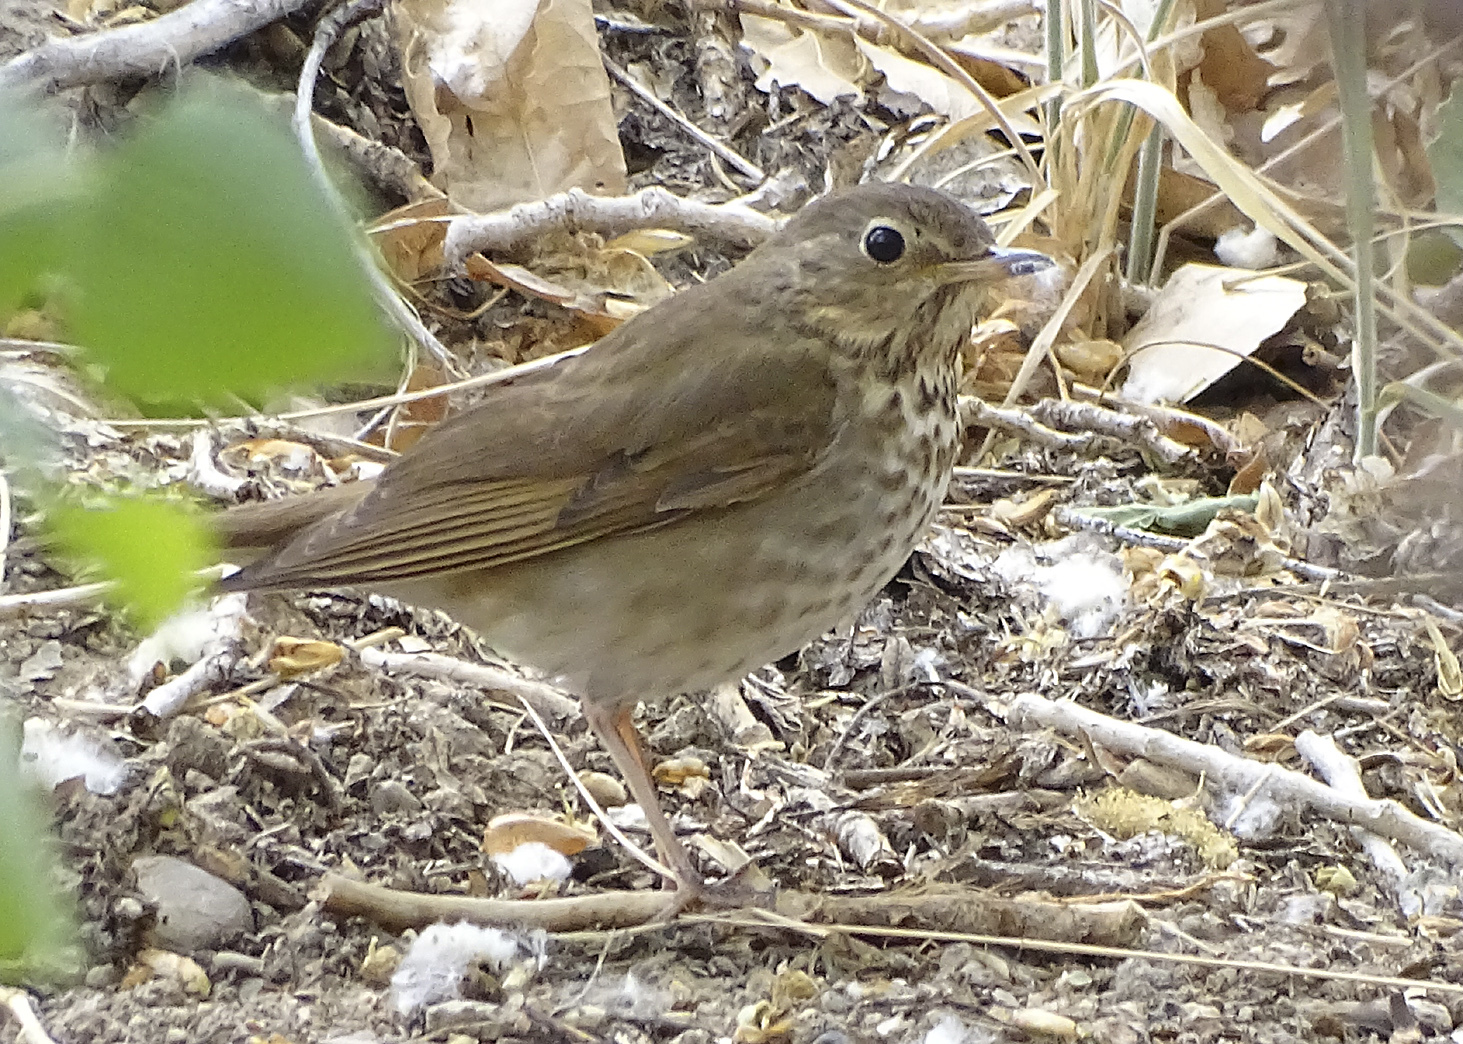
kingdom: Animalia
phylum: Chordata
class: Aves
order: Passeriformes
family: Turdidae
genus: Catharus
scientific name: Catharus ustulatus
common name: Swainson's thrush
